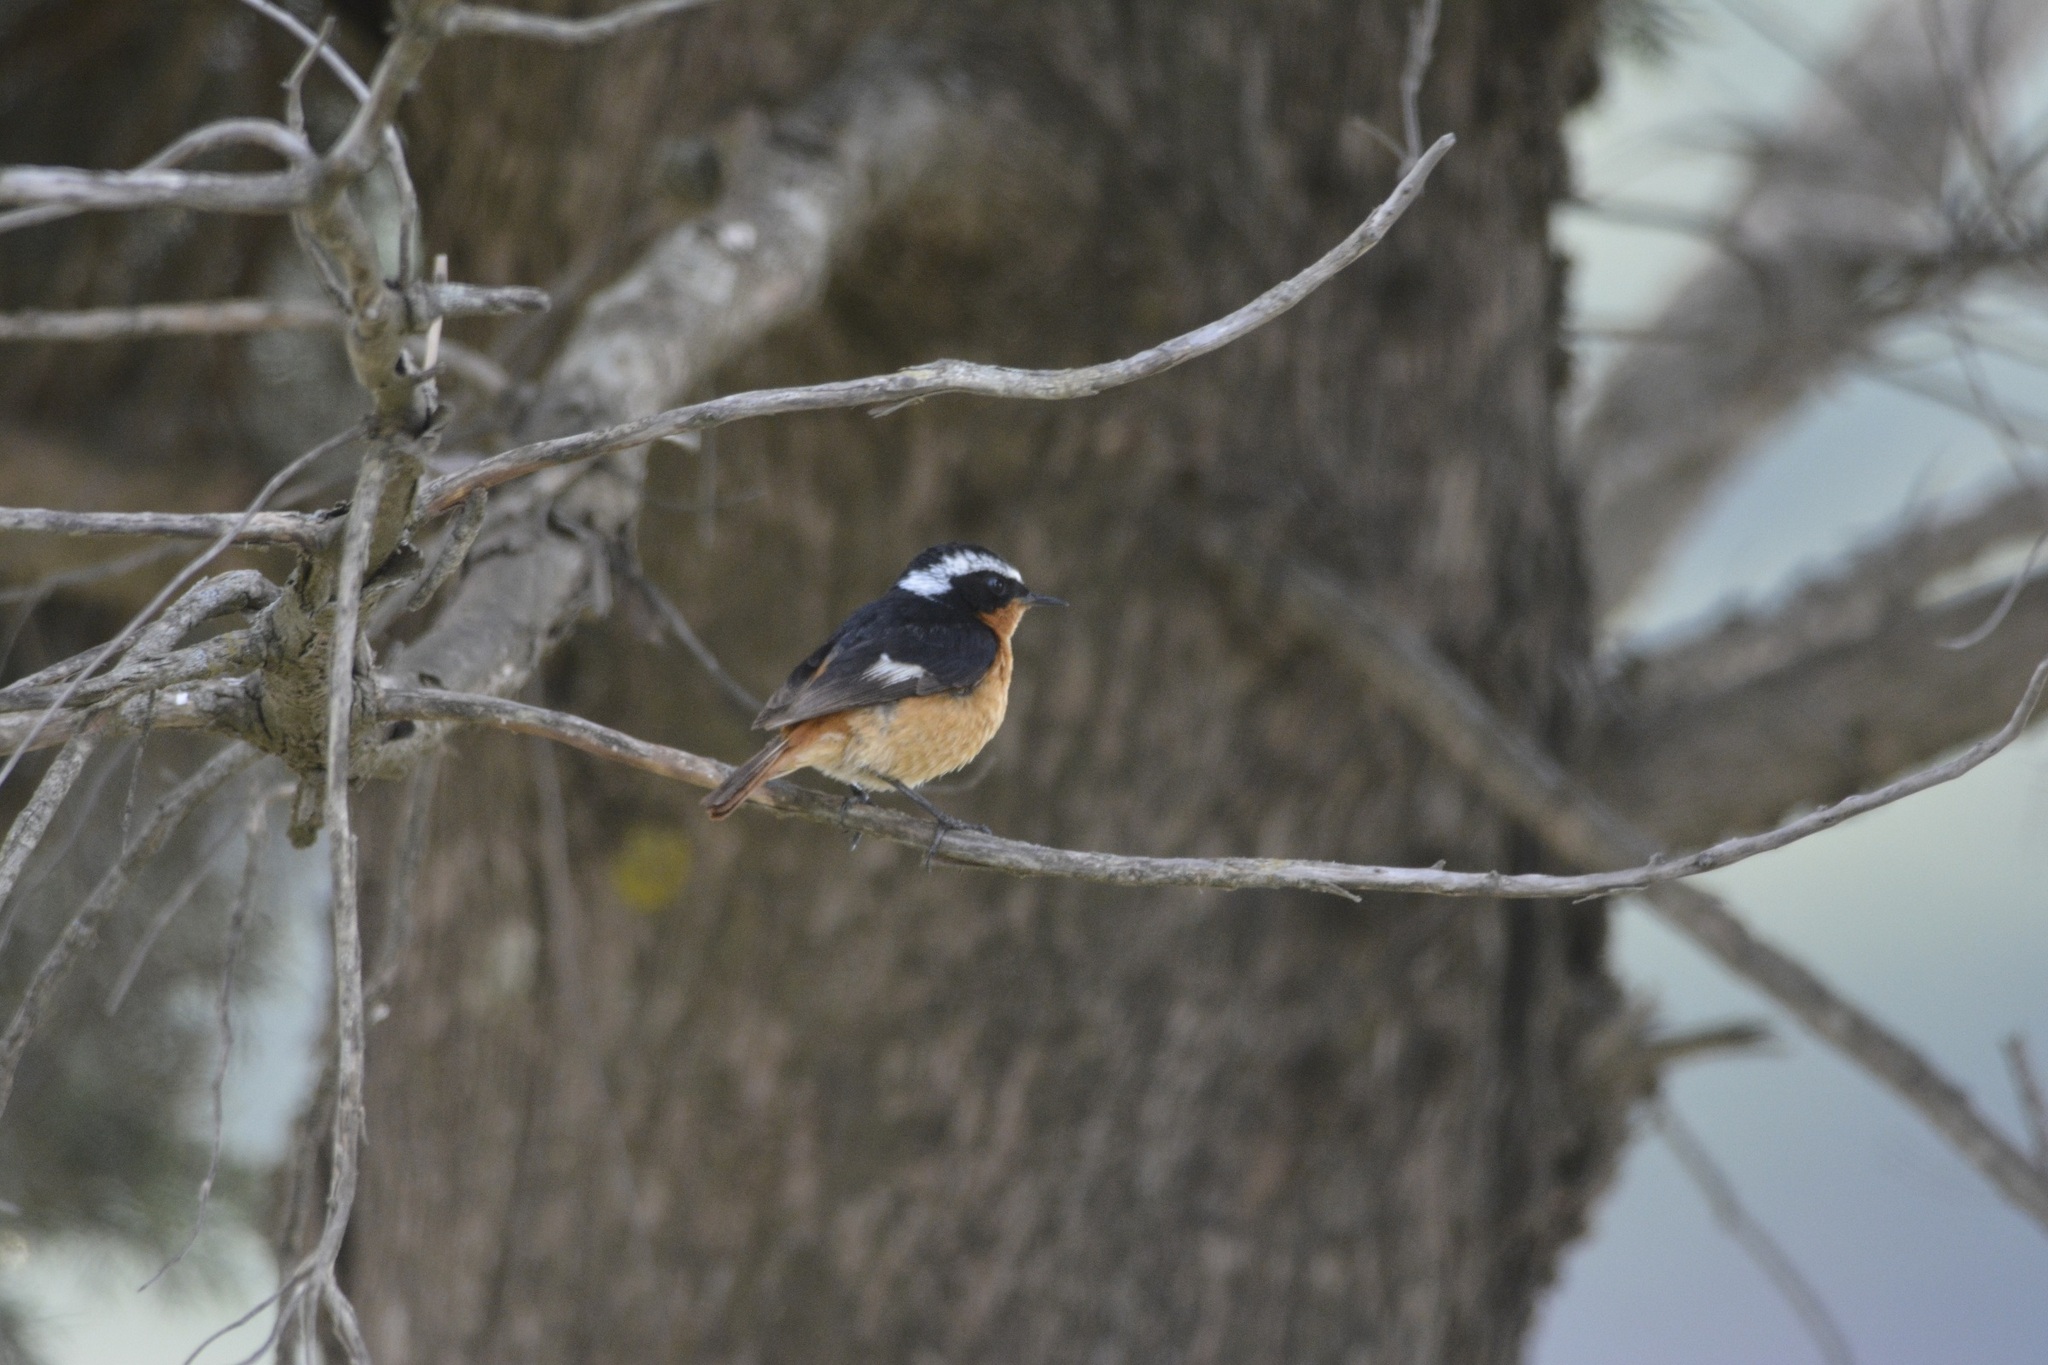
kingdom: Animalia
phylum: Chordata
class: Aves
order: Passeriformes
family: Muscicapidae
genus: Phoenicurus
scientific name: Phoenicurus moussieri
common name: Moussier's redstart
